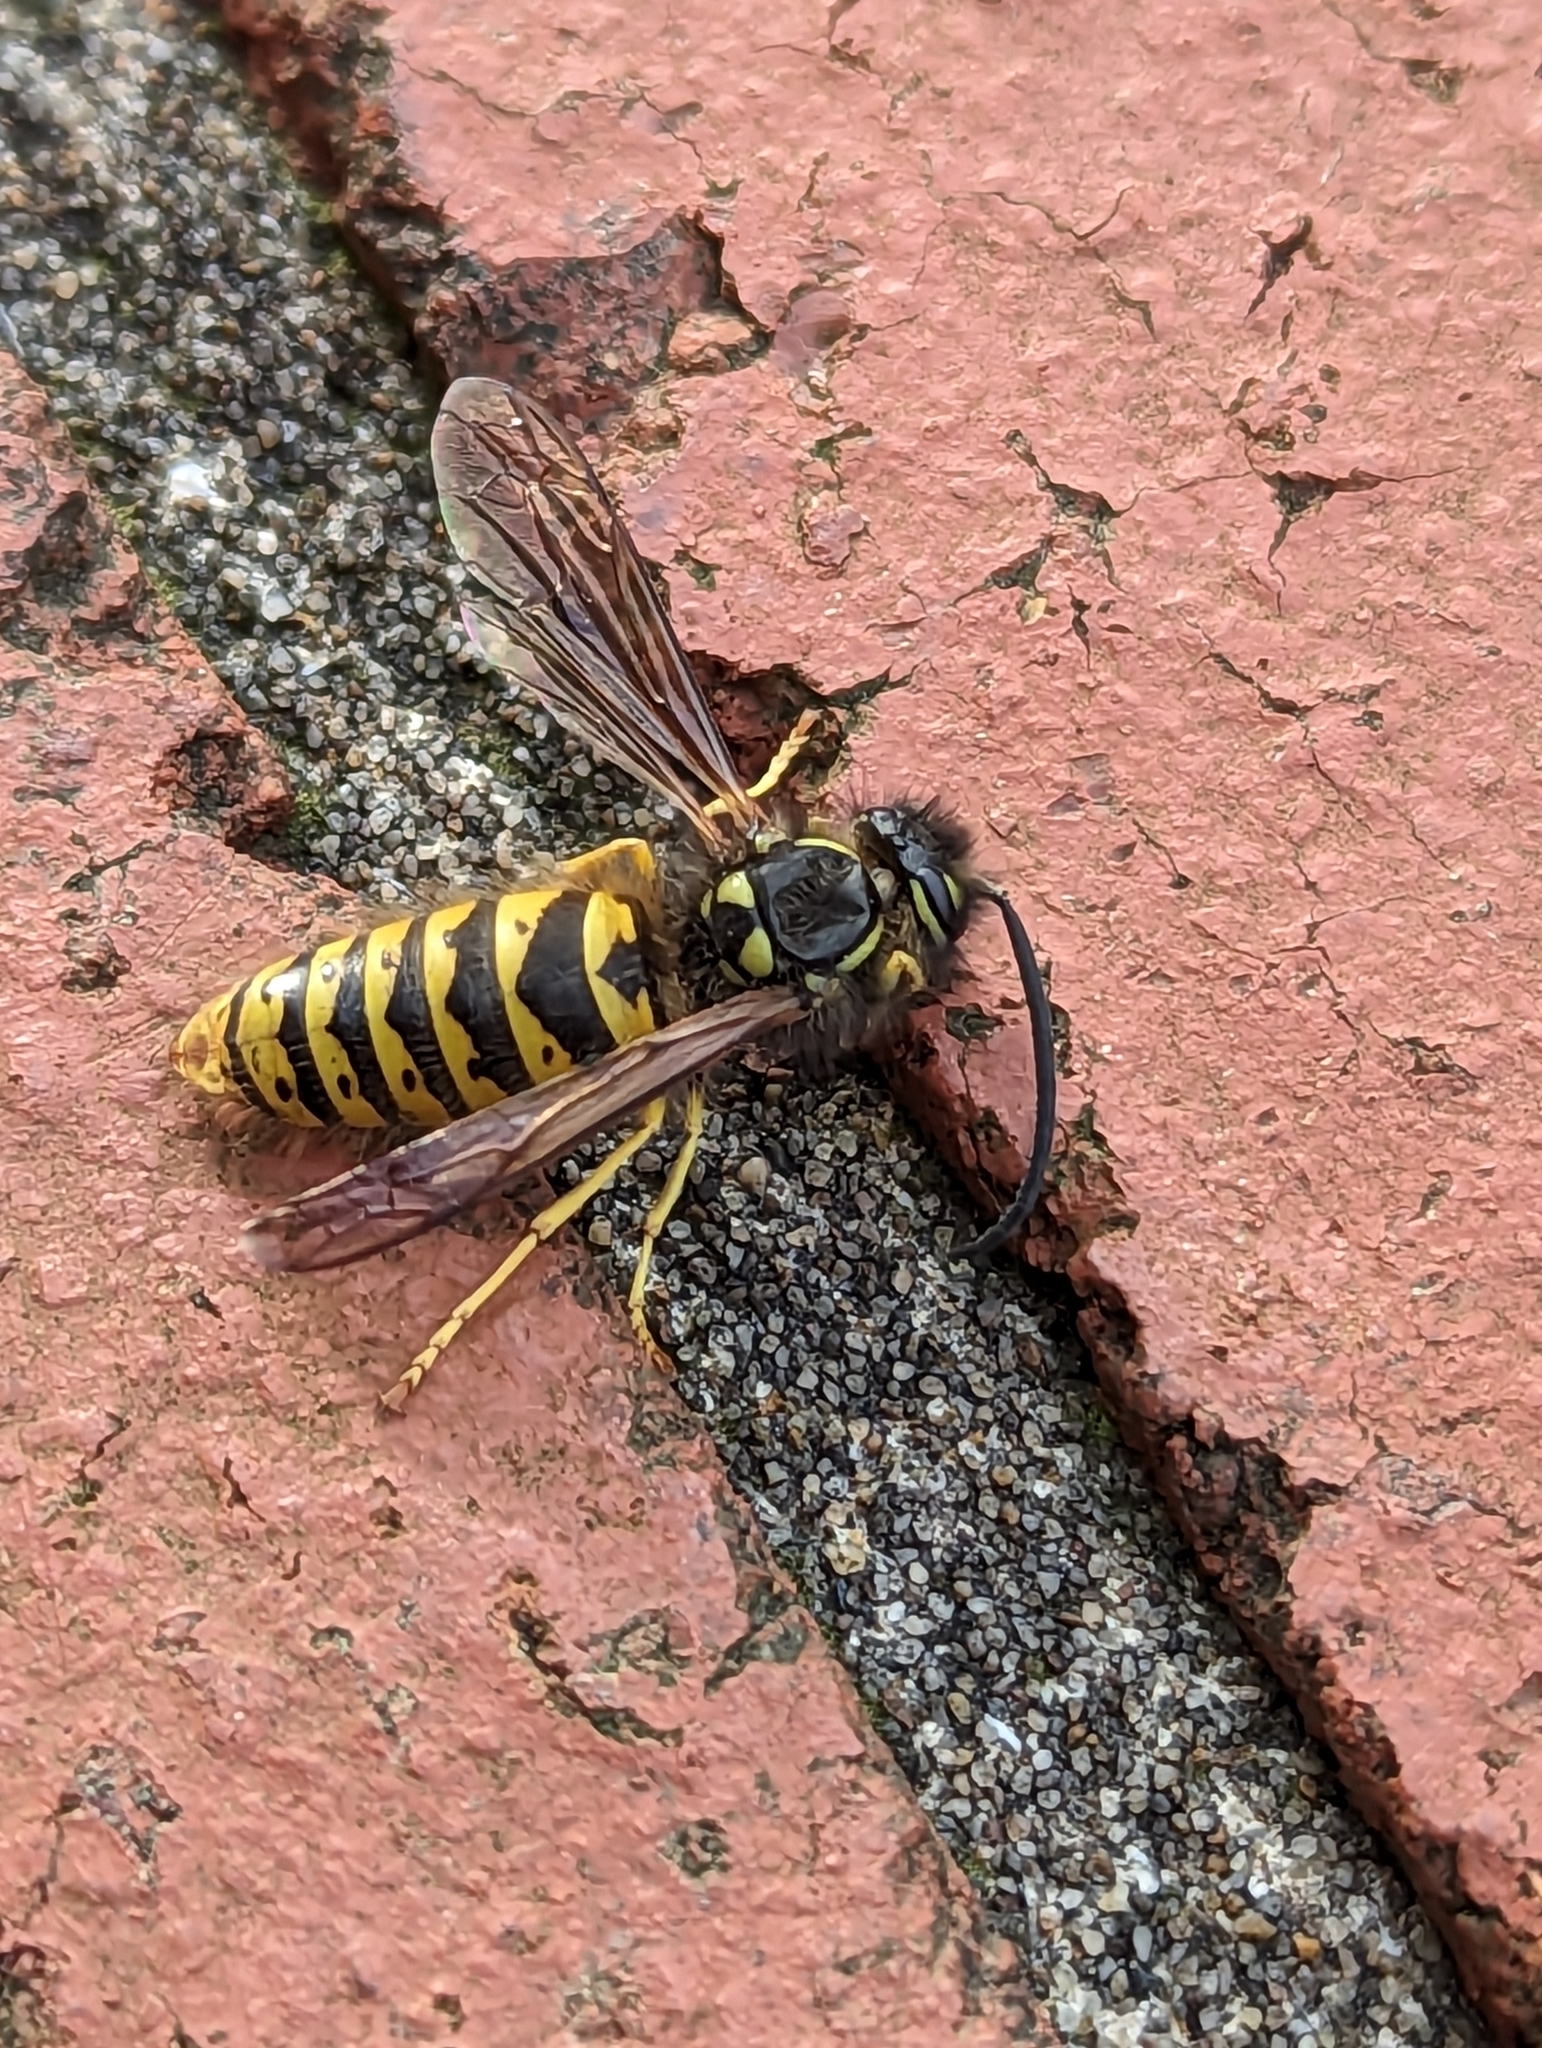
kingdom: Animalia
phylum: Arthropoda
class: Insecta
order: Hymenoptera
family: Vespidae
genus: Vespula
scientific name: Vespula germanica
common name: German wasp
